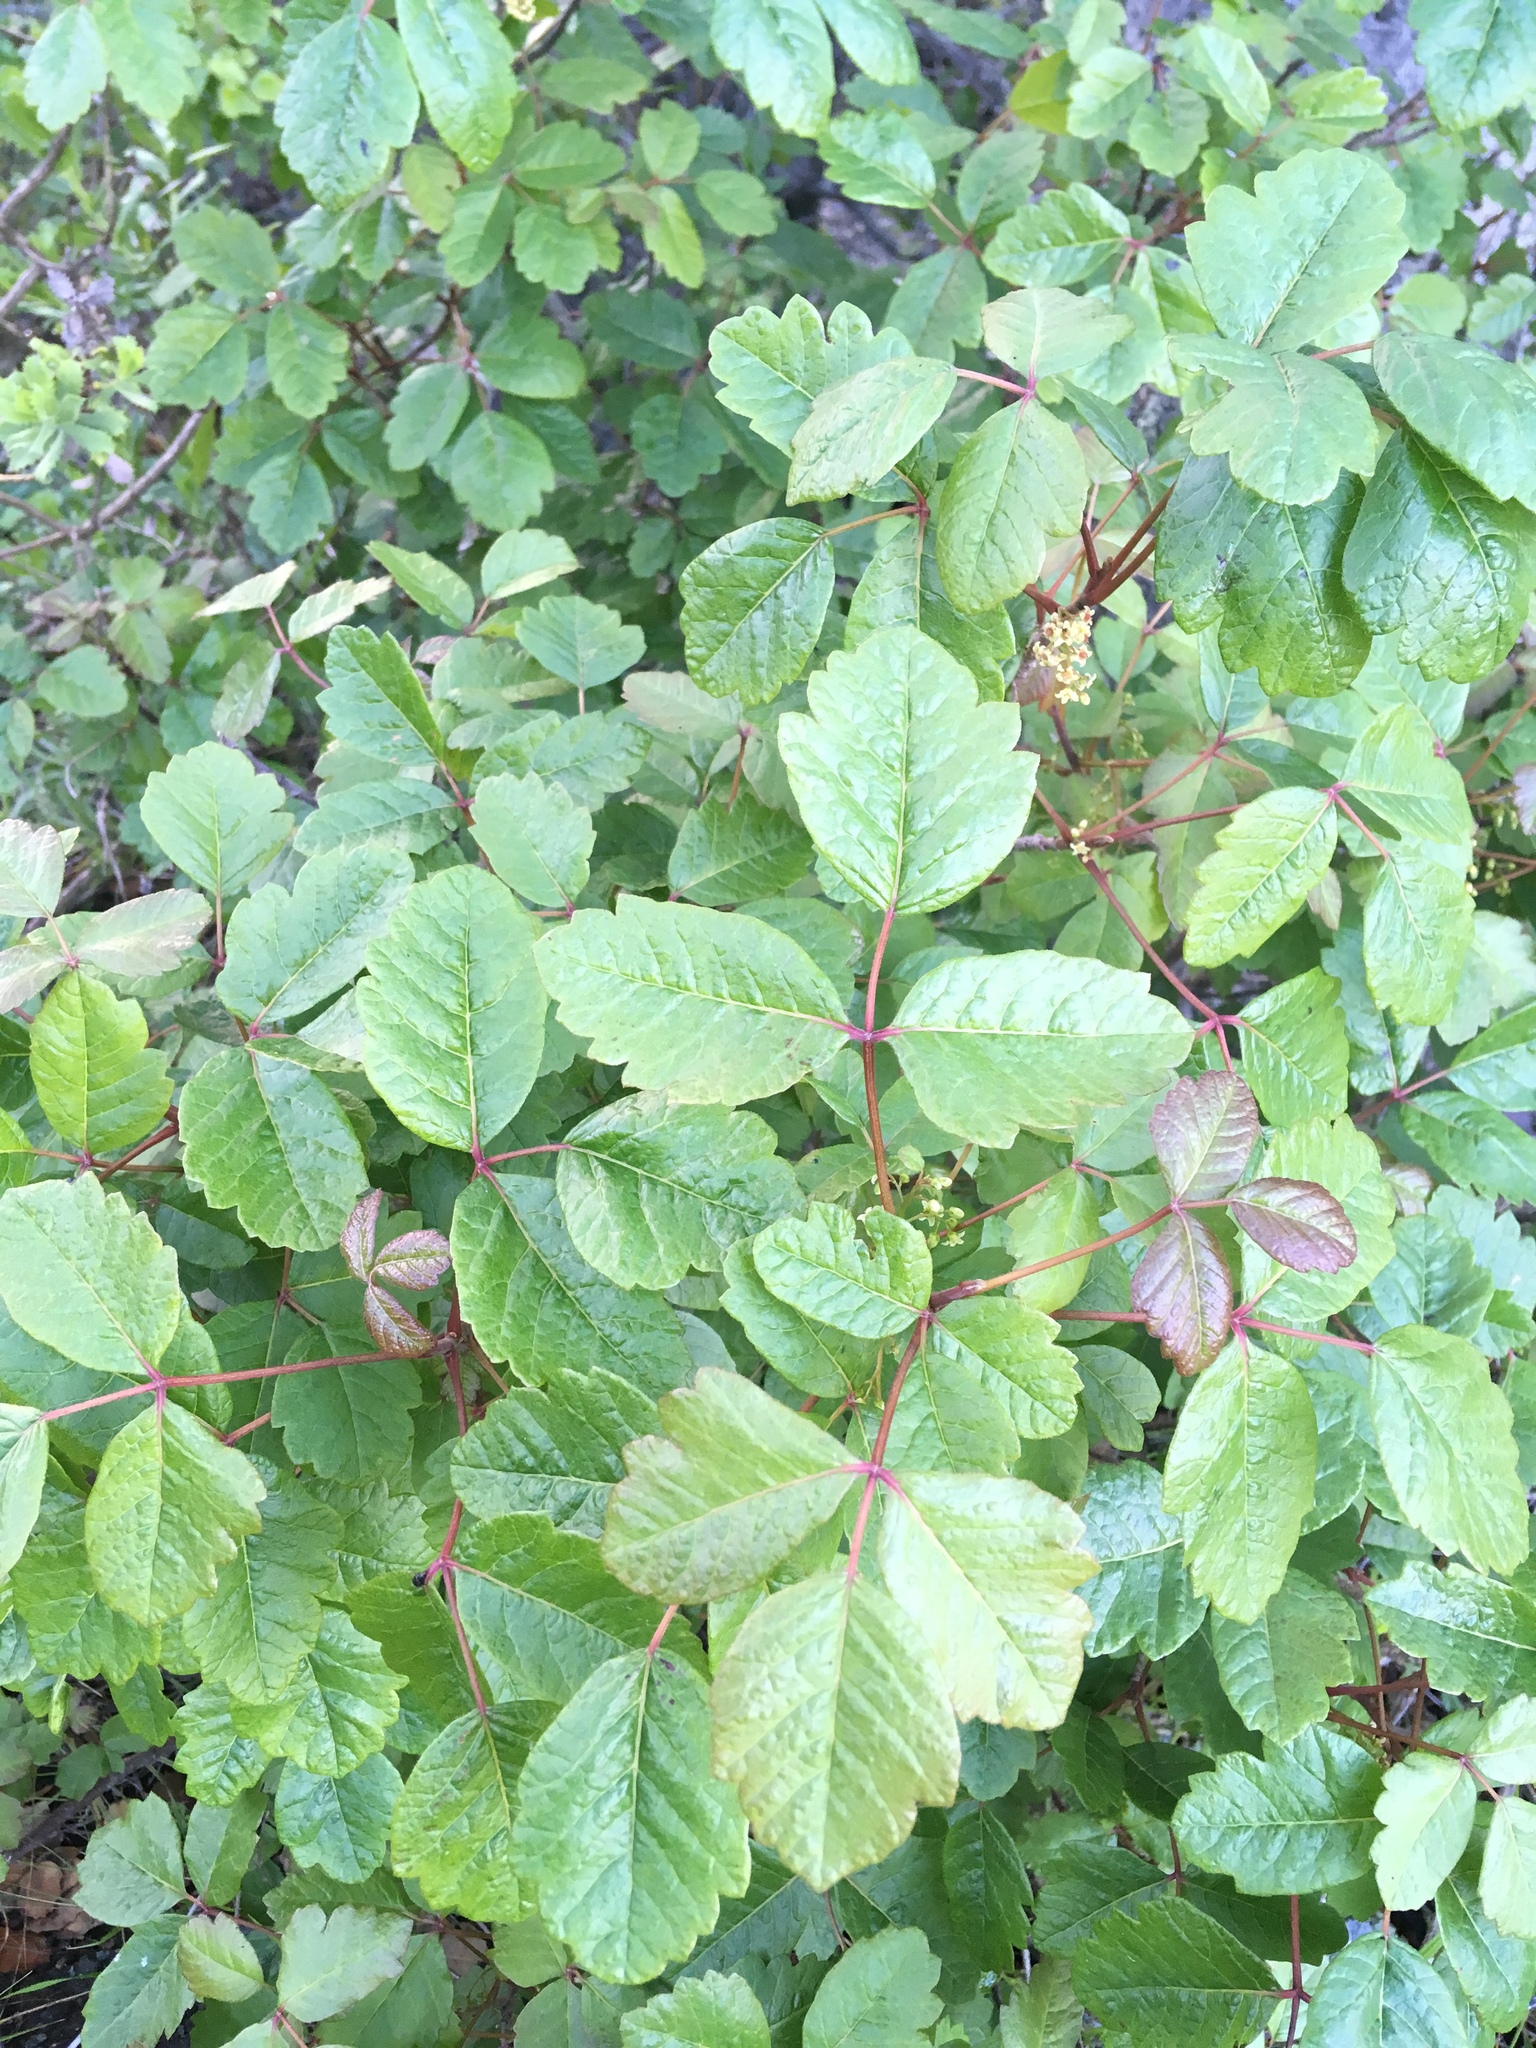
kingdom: Plantae
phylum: Tracheophyta
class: Magnoliopsida
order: Sapindales
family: Anacardiaceae
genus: Toxicodendron
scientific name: Toxicodendron diversilobum
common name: Pacific poison-oak
